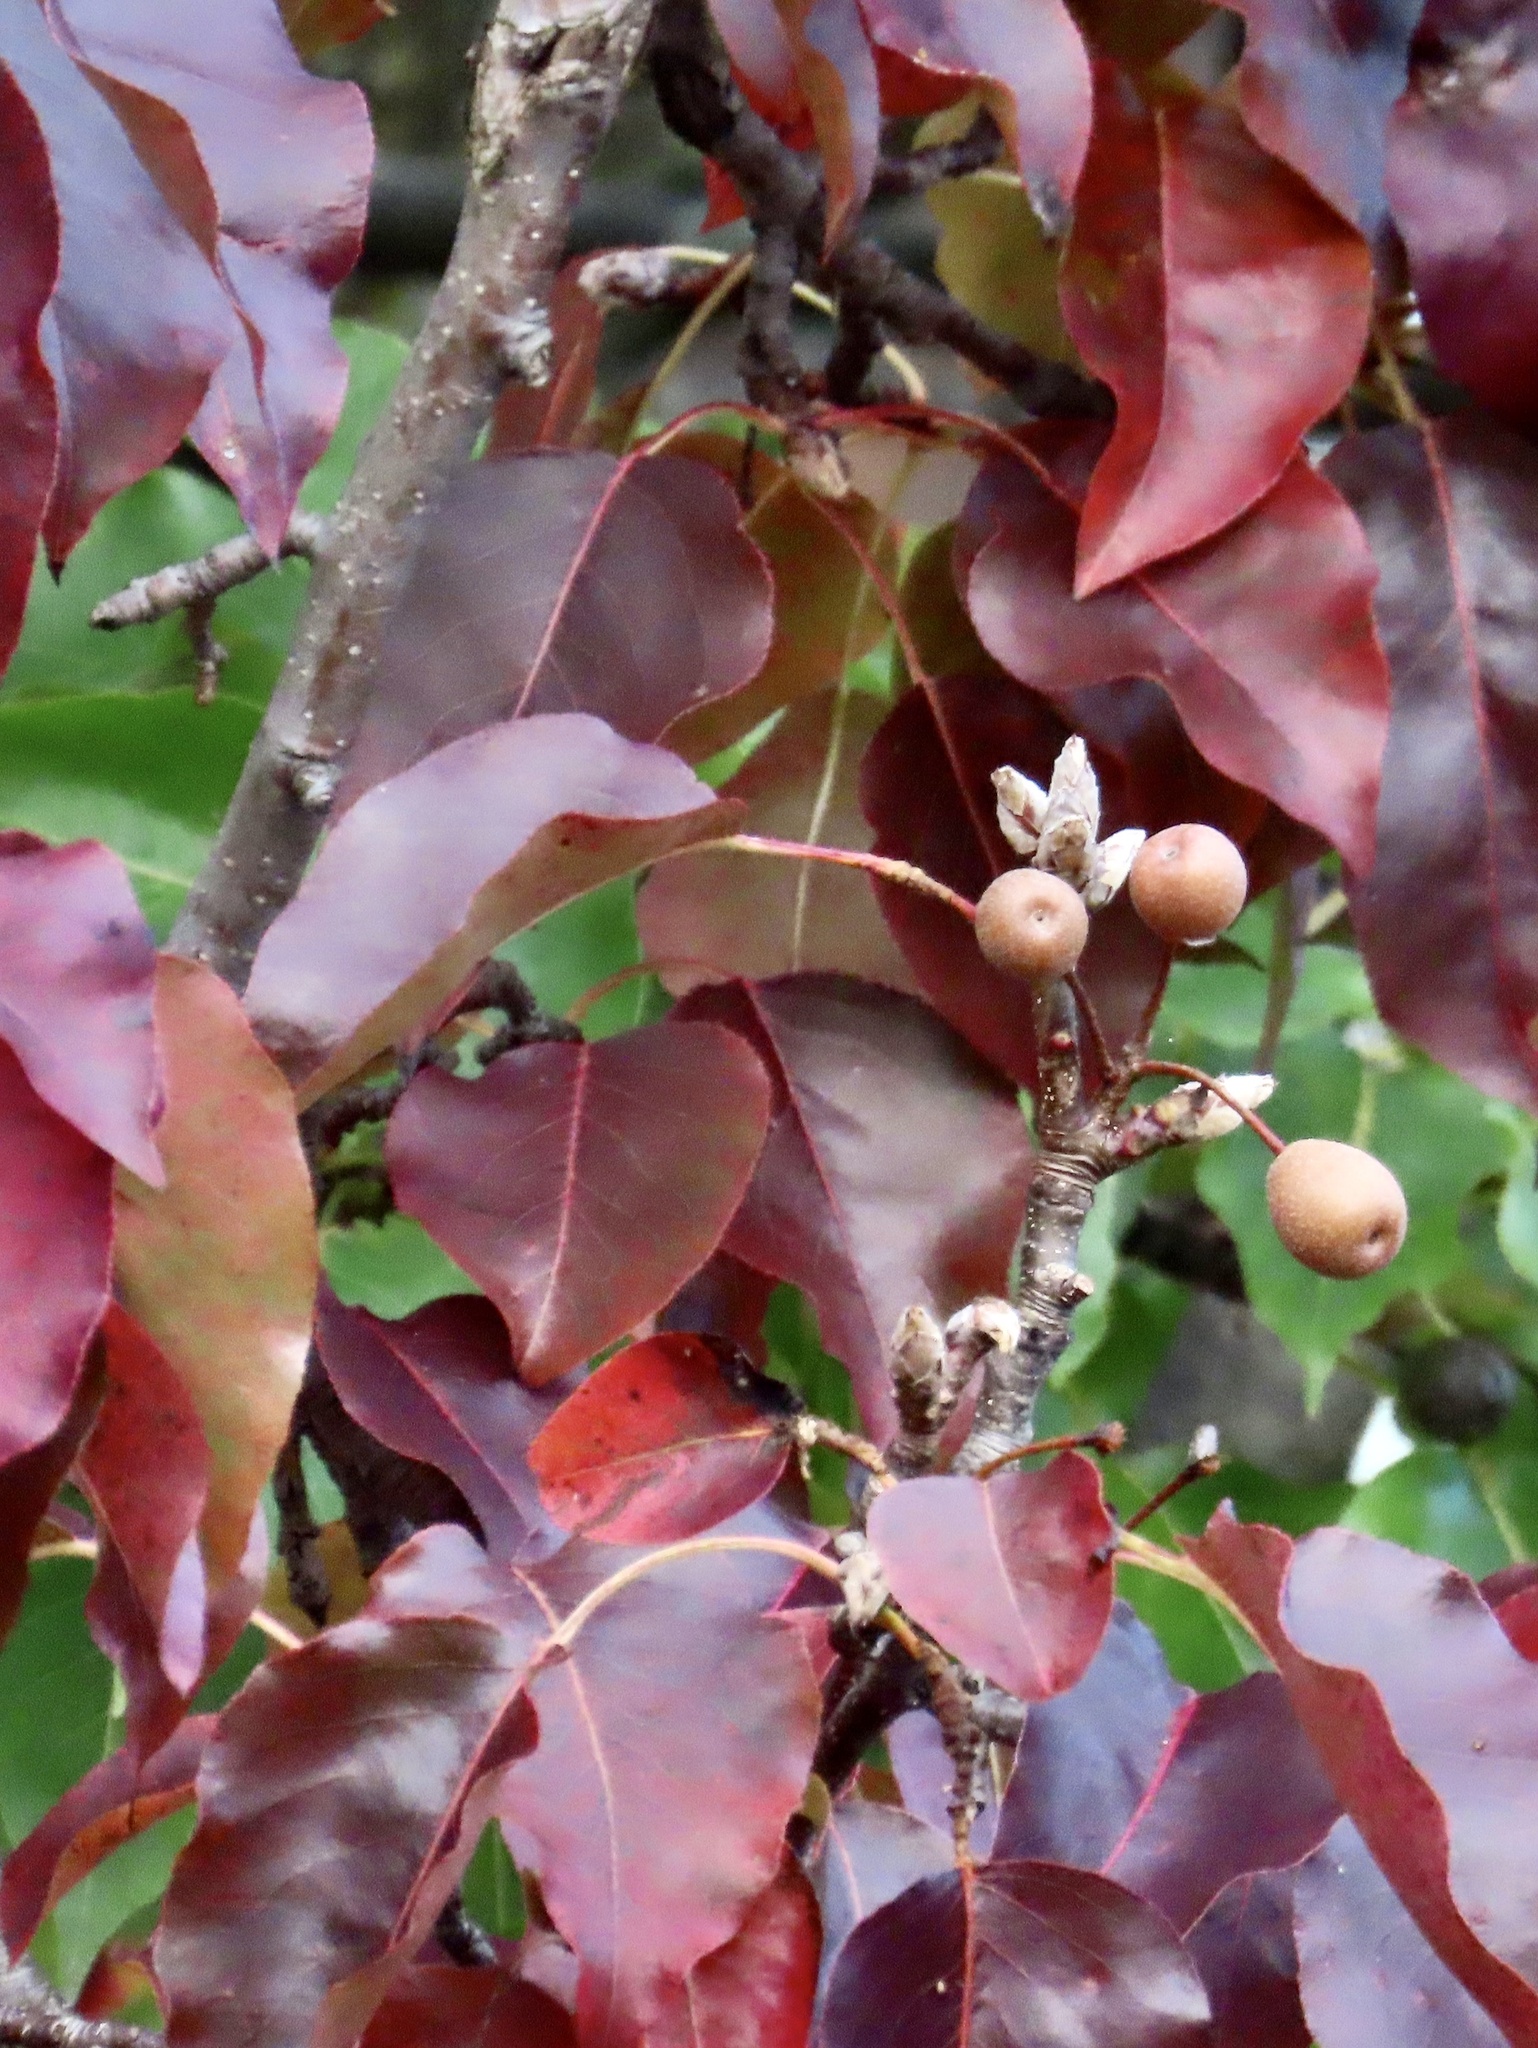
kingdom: Plantae
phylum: Tracheophyta
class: Magnoliopsida
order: Rosales
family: Rosaceae
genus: Pyrus
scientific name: Pyrus calleryana
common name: Callery pear
